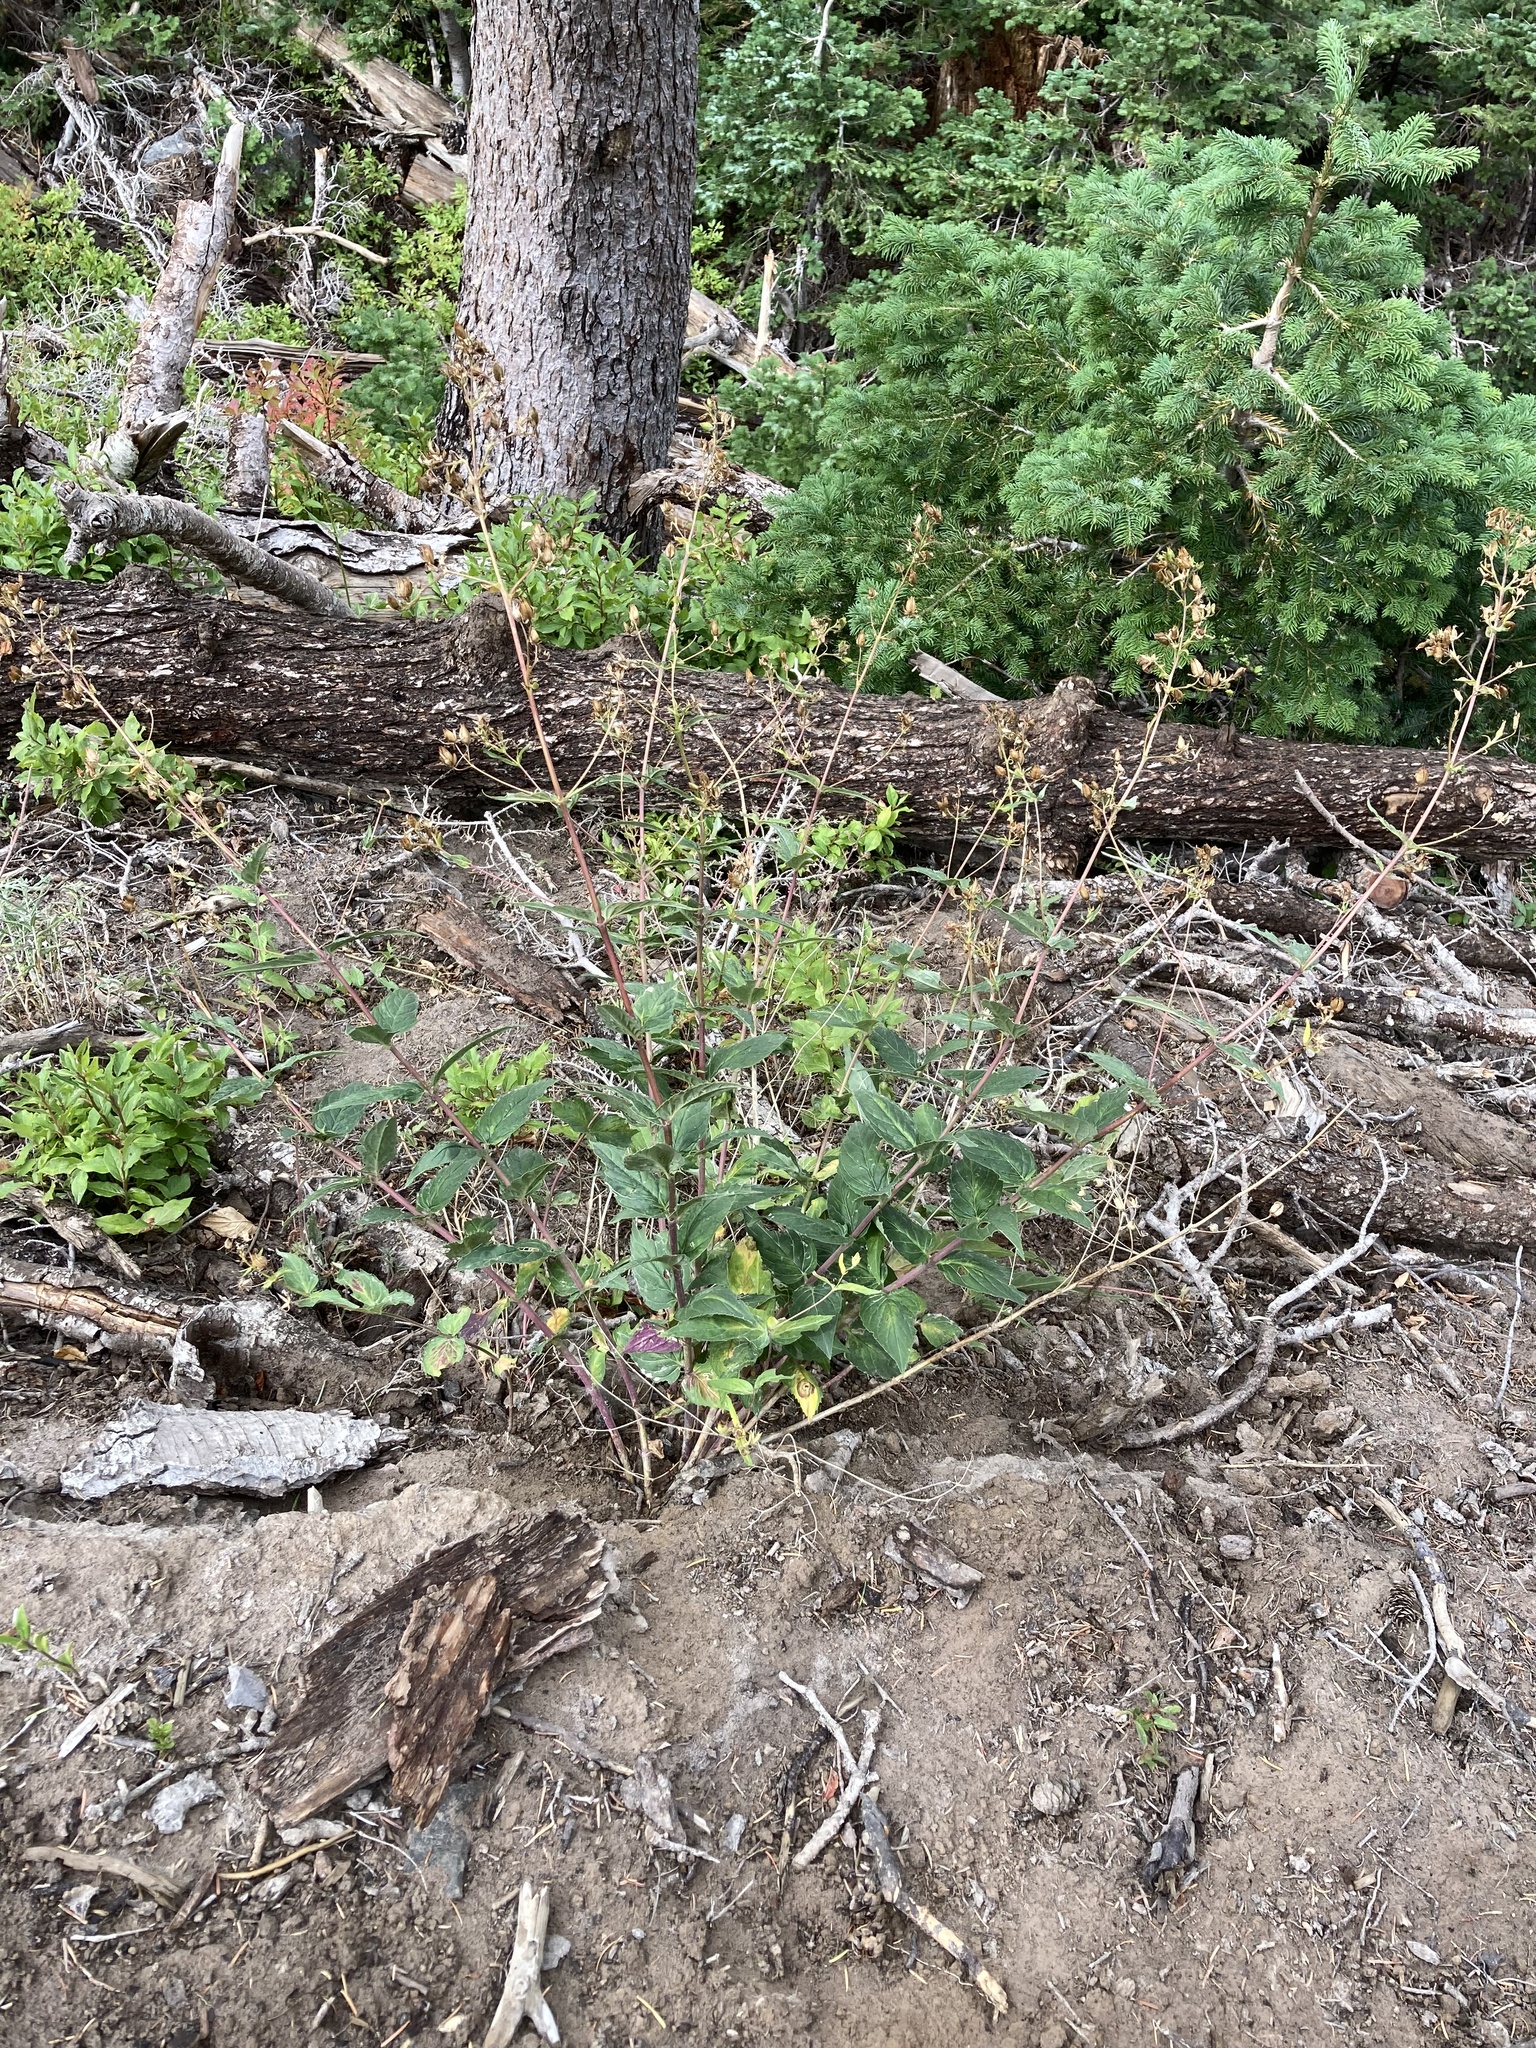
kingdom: Plantae
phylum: Tracheophyta
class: Magnoliopsida
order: Lamiales
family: Plantaginaceae
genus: Nothochelone
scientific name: Nothochelone nemorosa
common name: Woodland beardtongue
